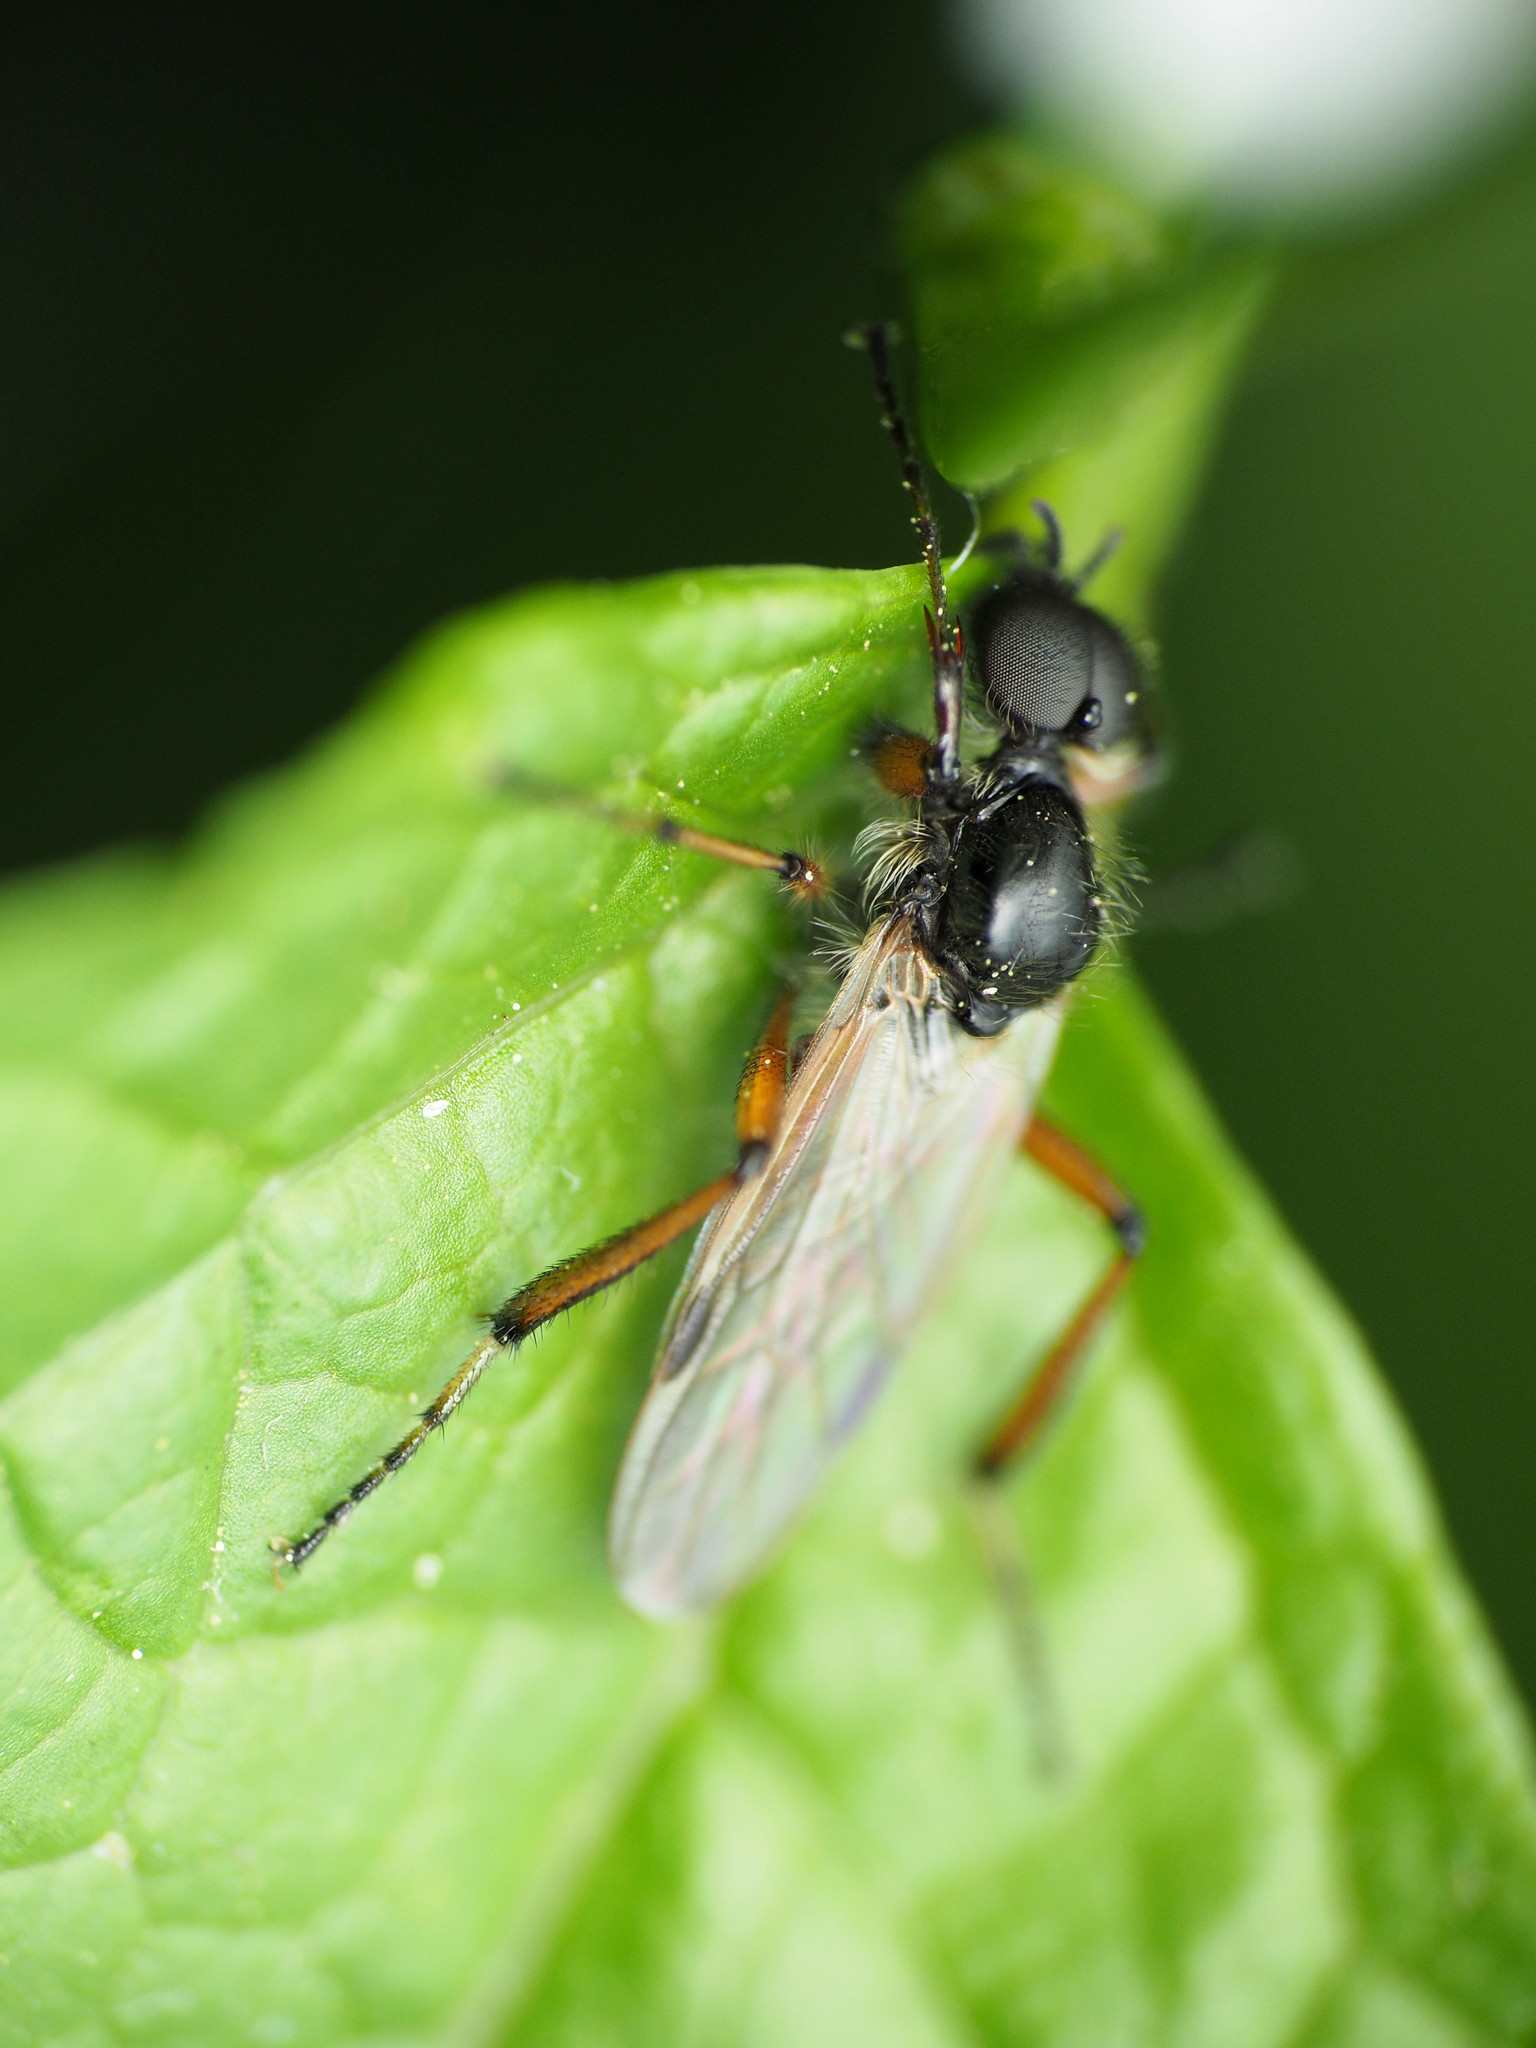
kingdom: Animalia
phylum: Arthropoda
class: Insecta
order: Diptera
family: Bibionidae
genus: Bibio
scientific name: Bibio articulatus
